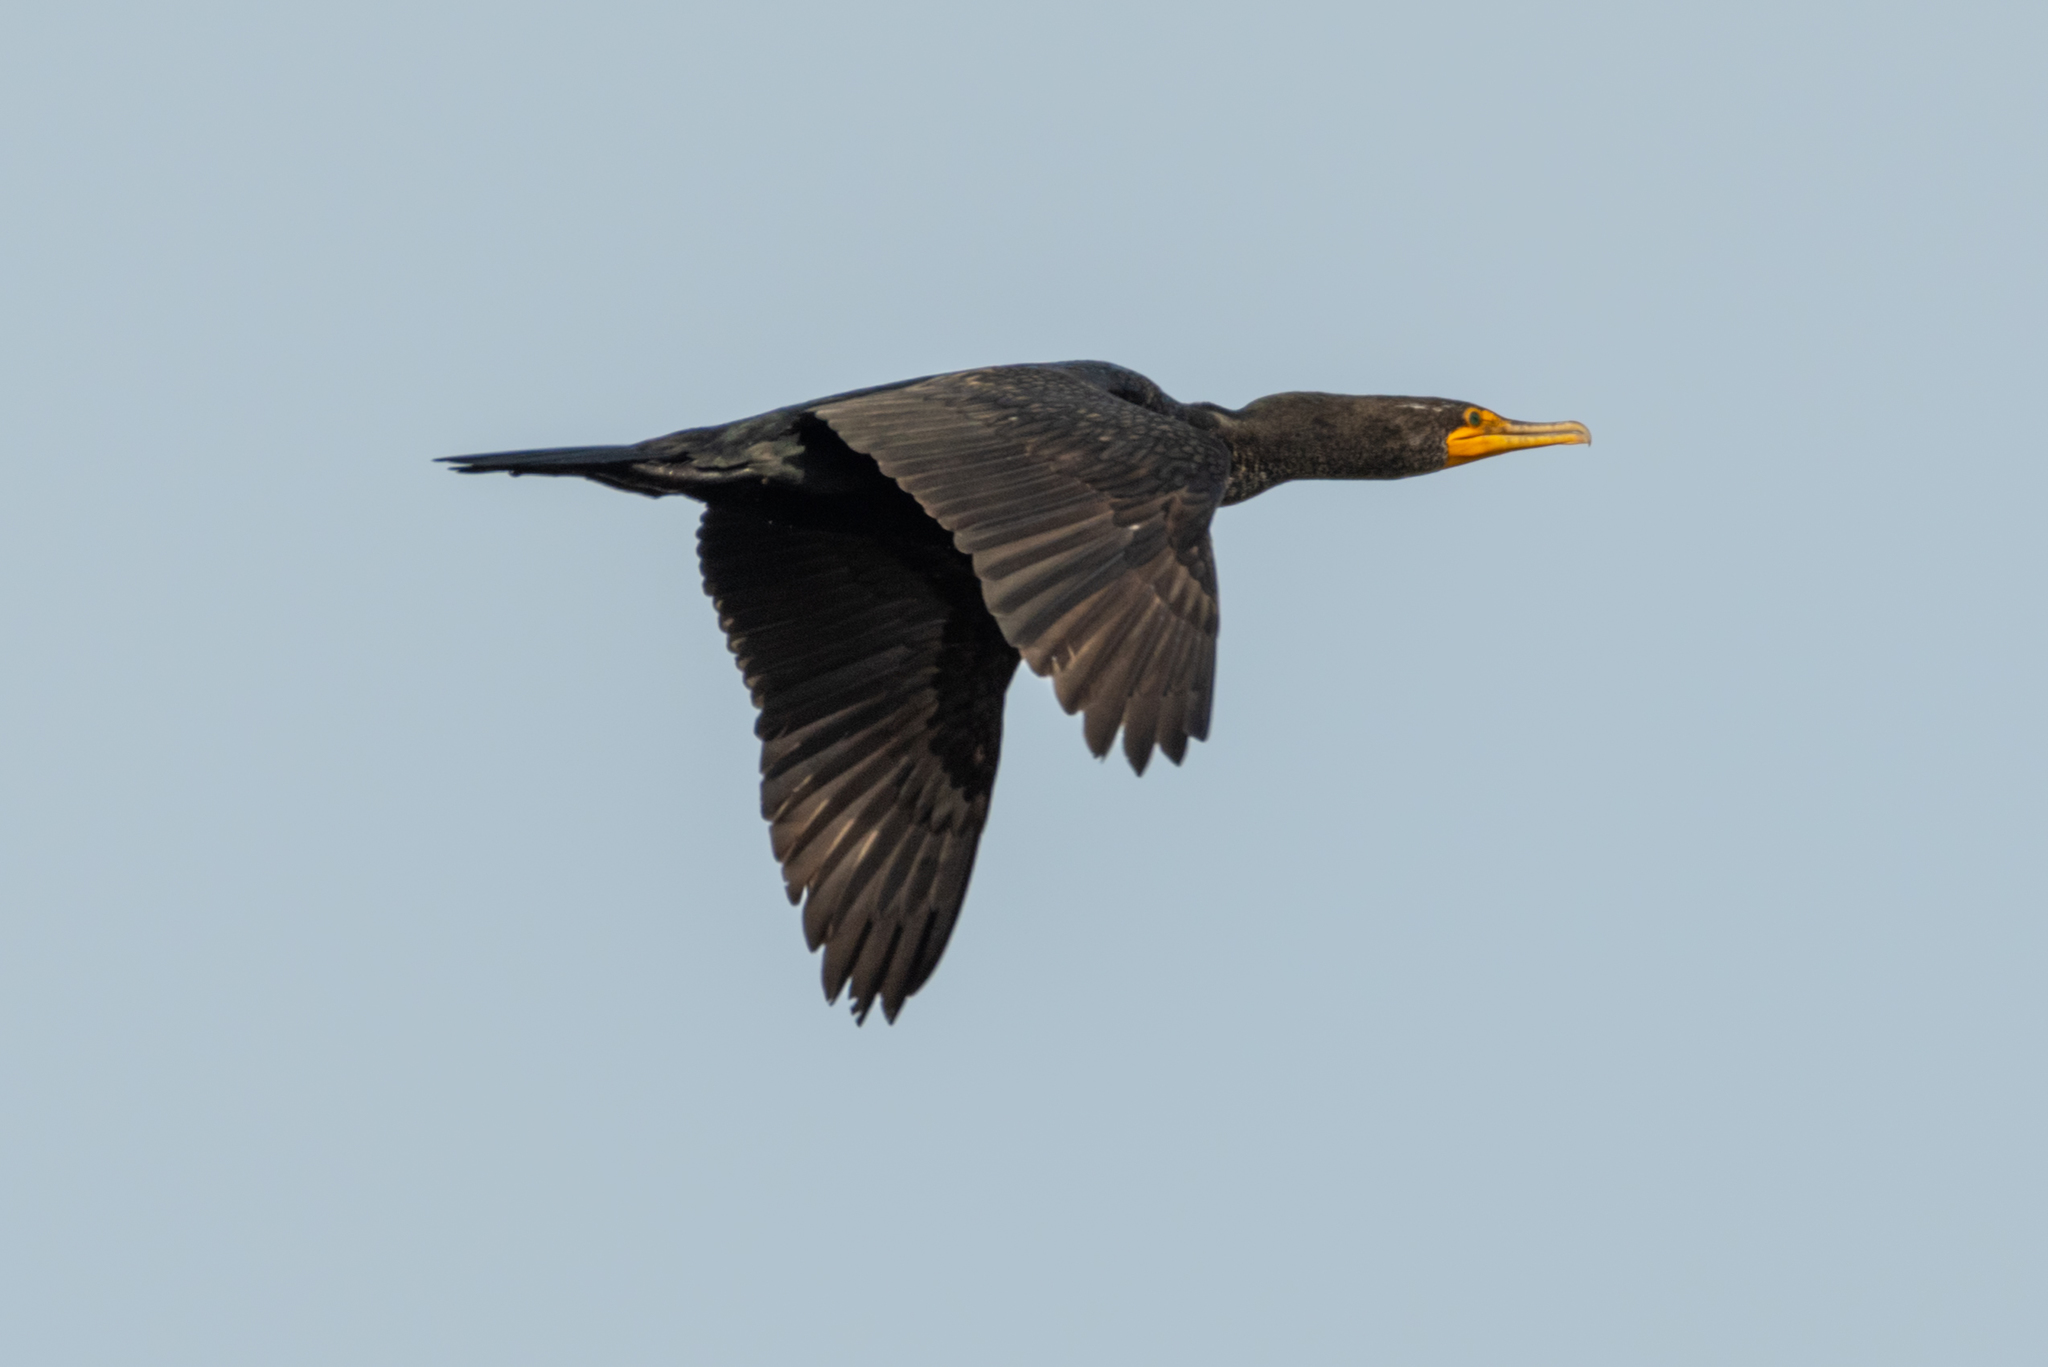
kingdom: Animalia
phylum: Chordata
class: Aves
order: Suliformes
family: Phalacrocoracidae
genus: Phalacrocorax
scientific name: Phalacrocorax auritus
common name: Double-crested cormorant
